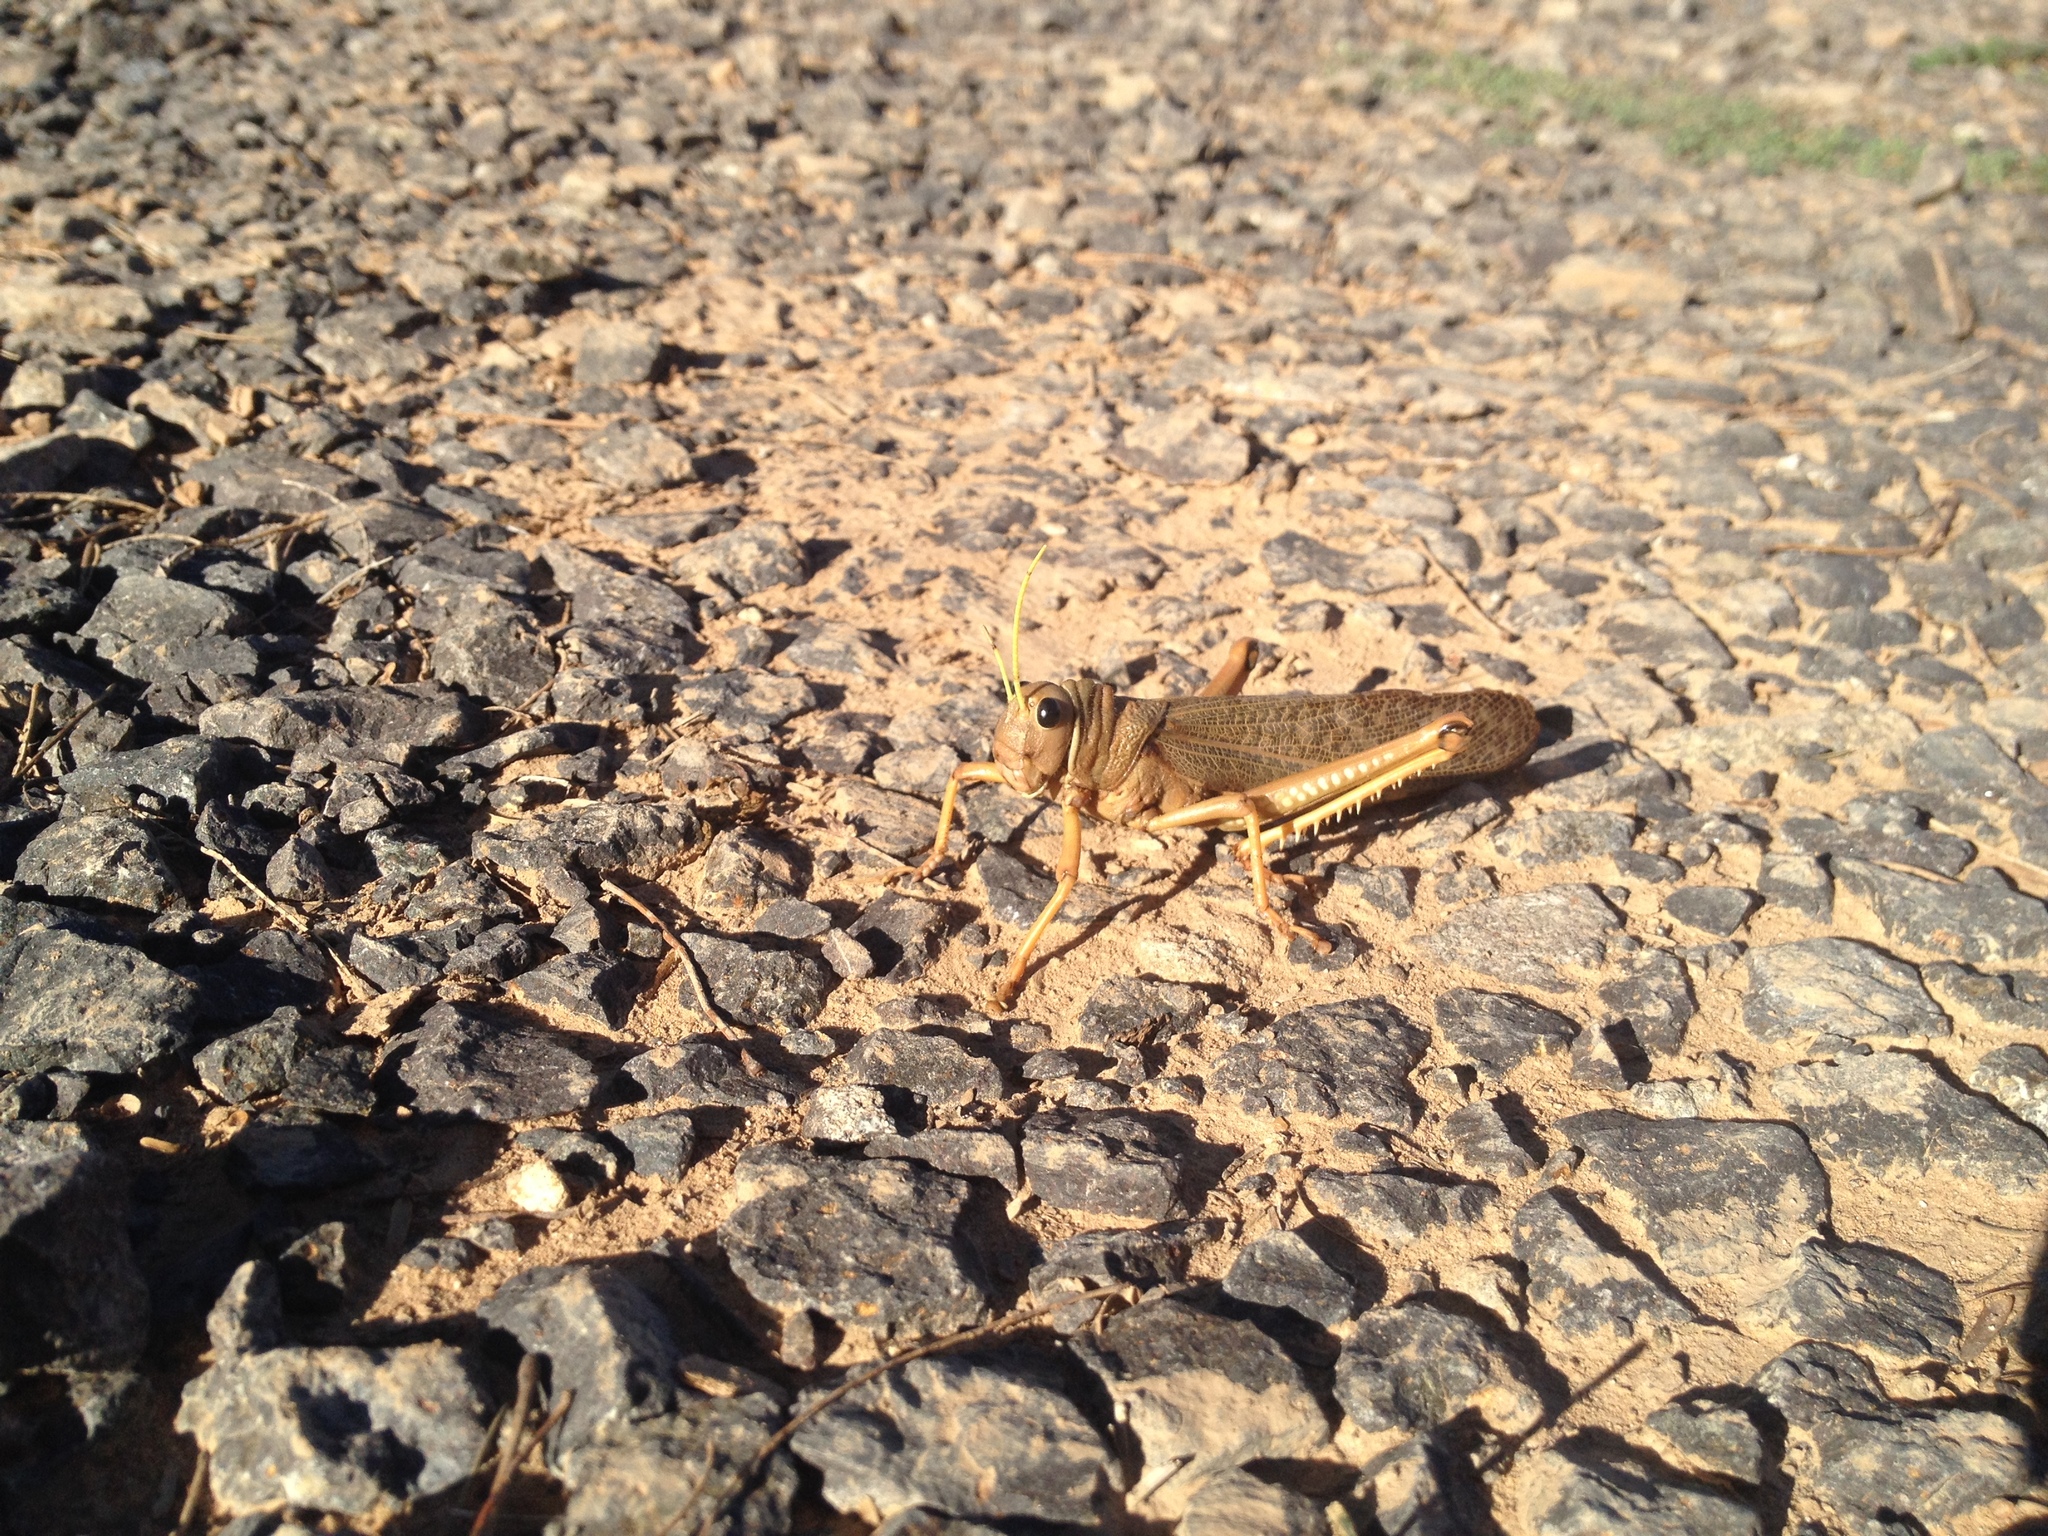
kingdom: Animalia
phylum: Arthropoda
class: Insecta
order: Orthoptera
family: Romaleidae
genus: Tropidacris
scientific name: Tropidacris collaris
